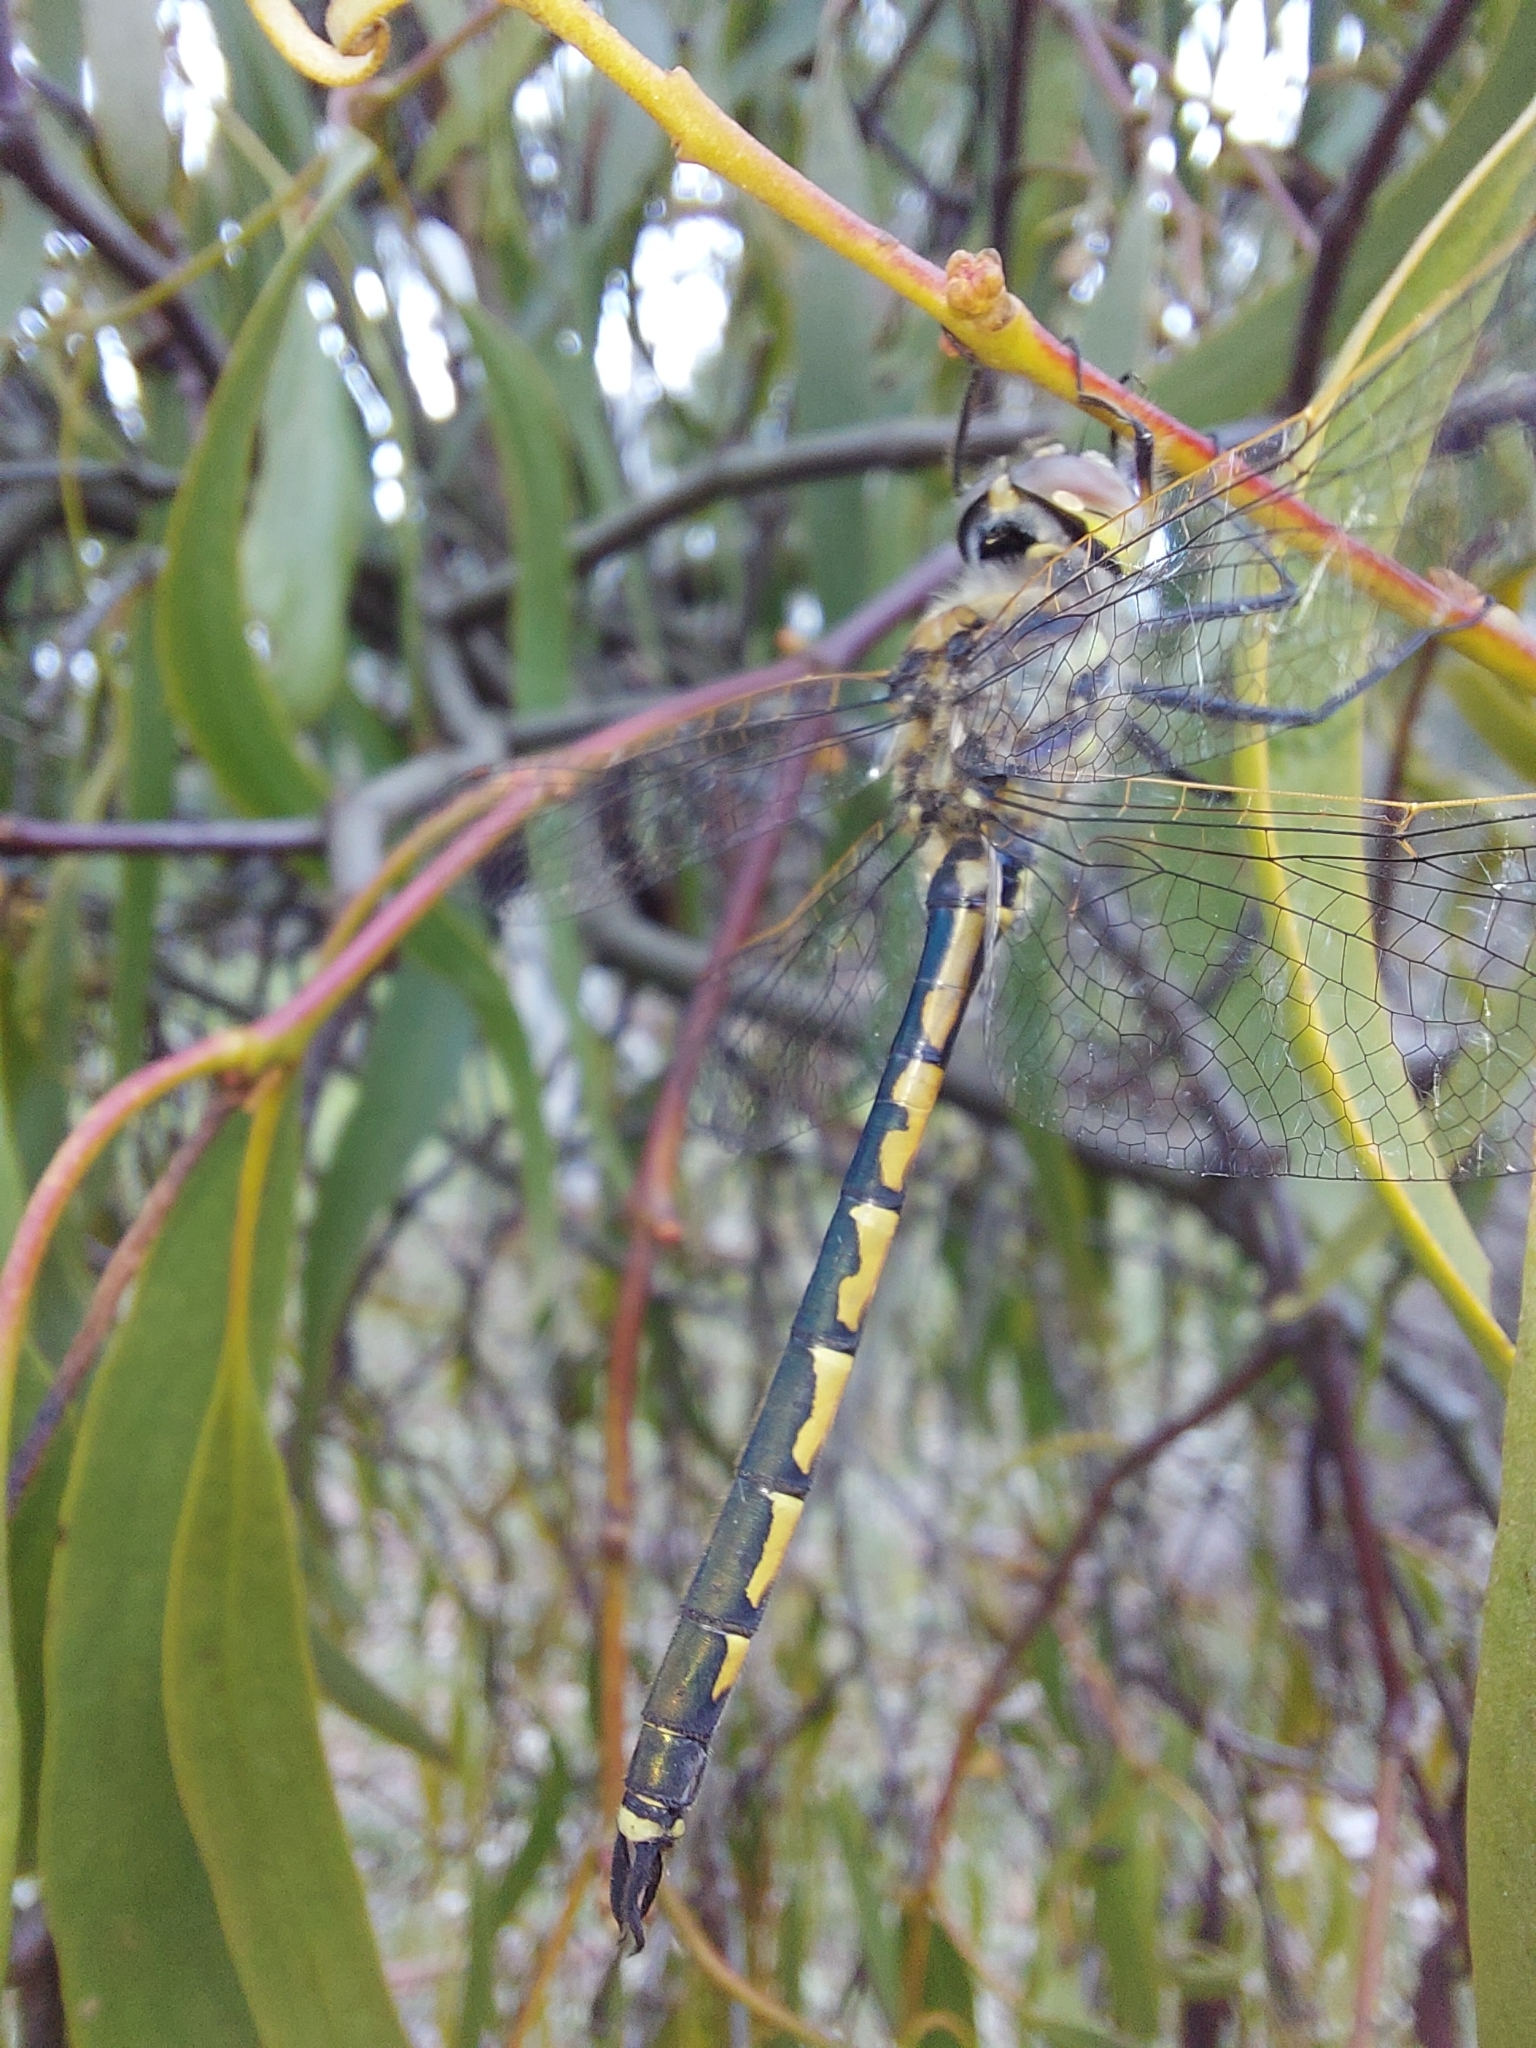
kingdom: Animalia
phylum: Arthropoda
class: Insecta
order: Odonata
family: Corduliidae
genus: Hemicordulia
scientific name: Hemicordulia tau
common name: Tau emerald
